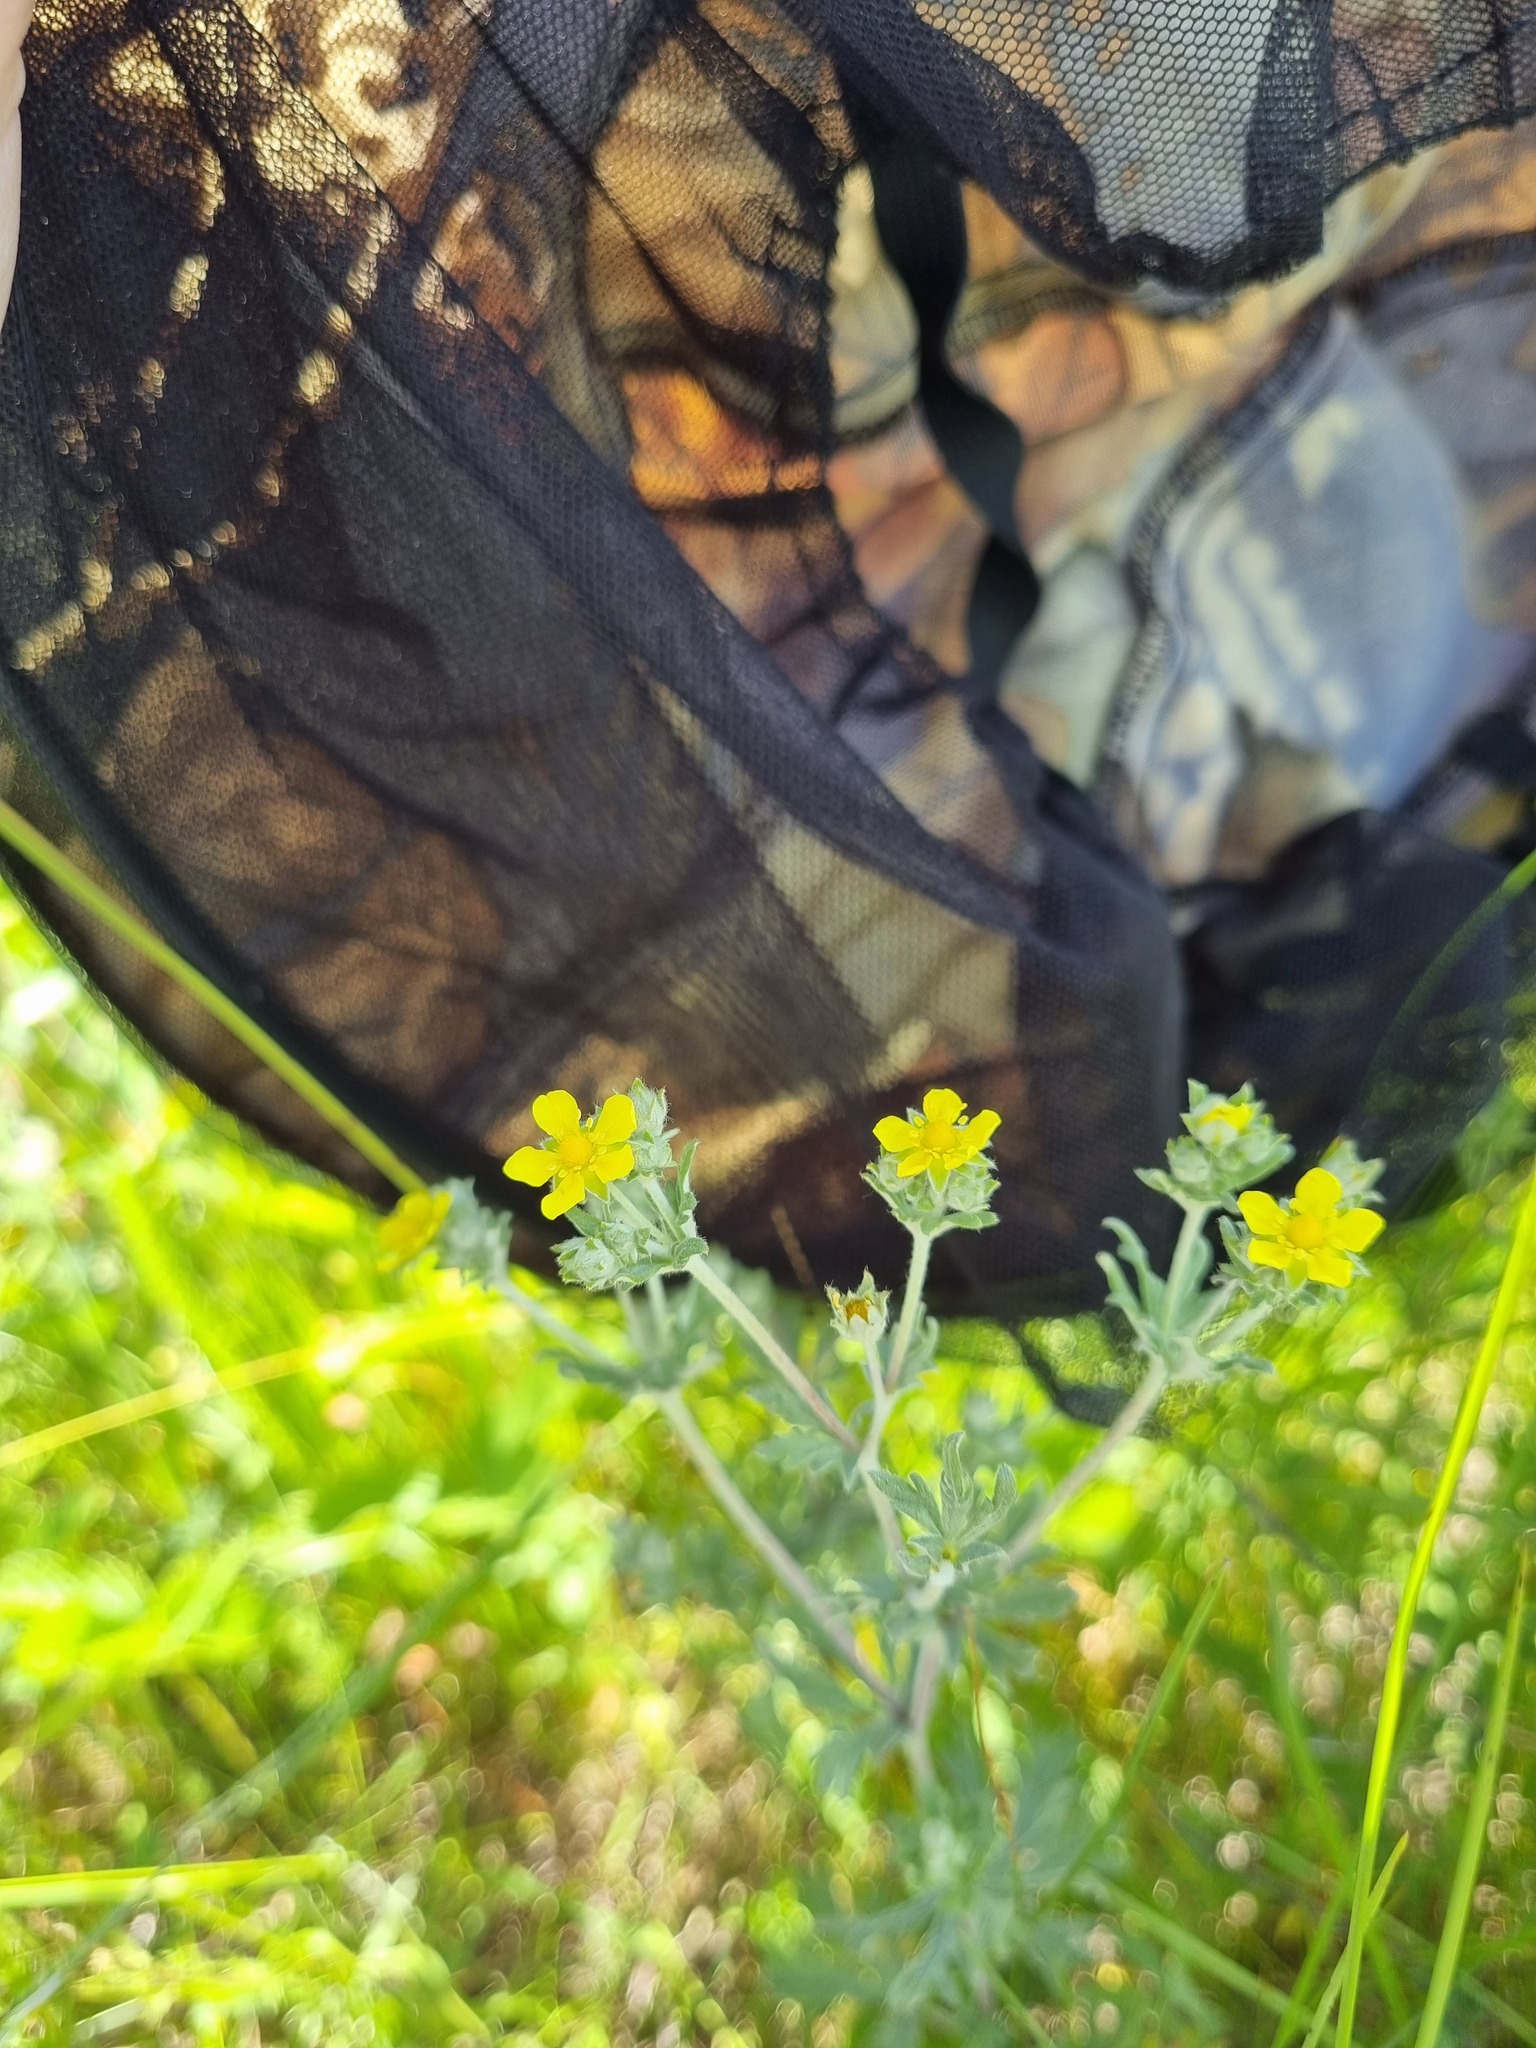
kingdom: Plantae
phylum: Tracheophyta
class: Magnoliopsida
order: Rosales
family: Rosaceae
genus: Potentilla
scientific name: Potentilla argentea
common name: Hoary cinquefoil
